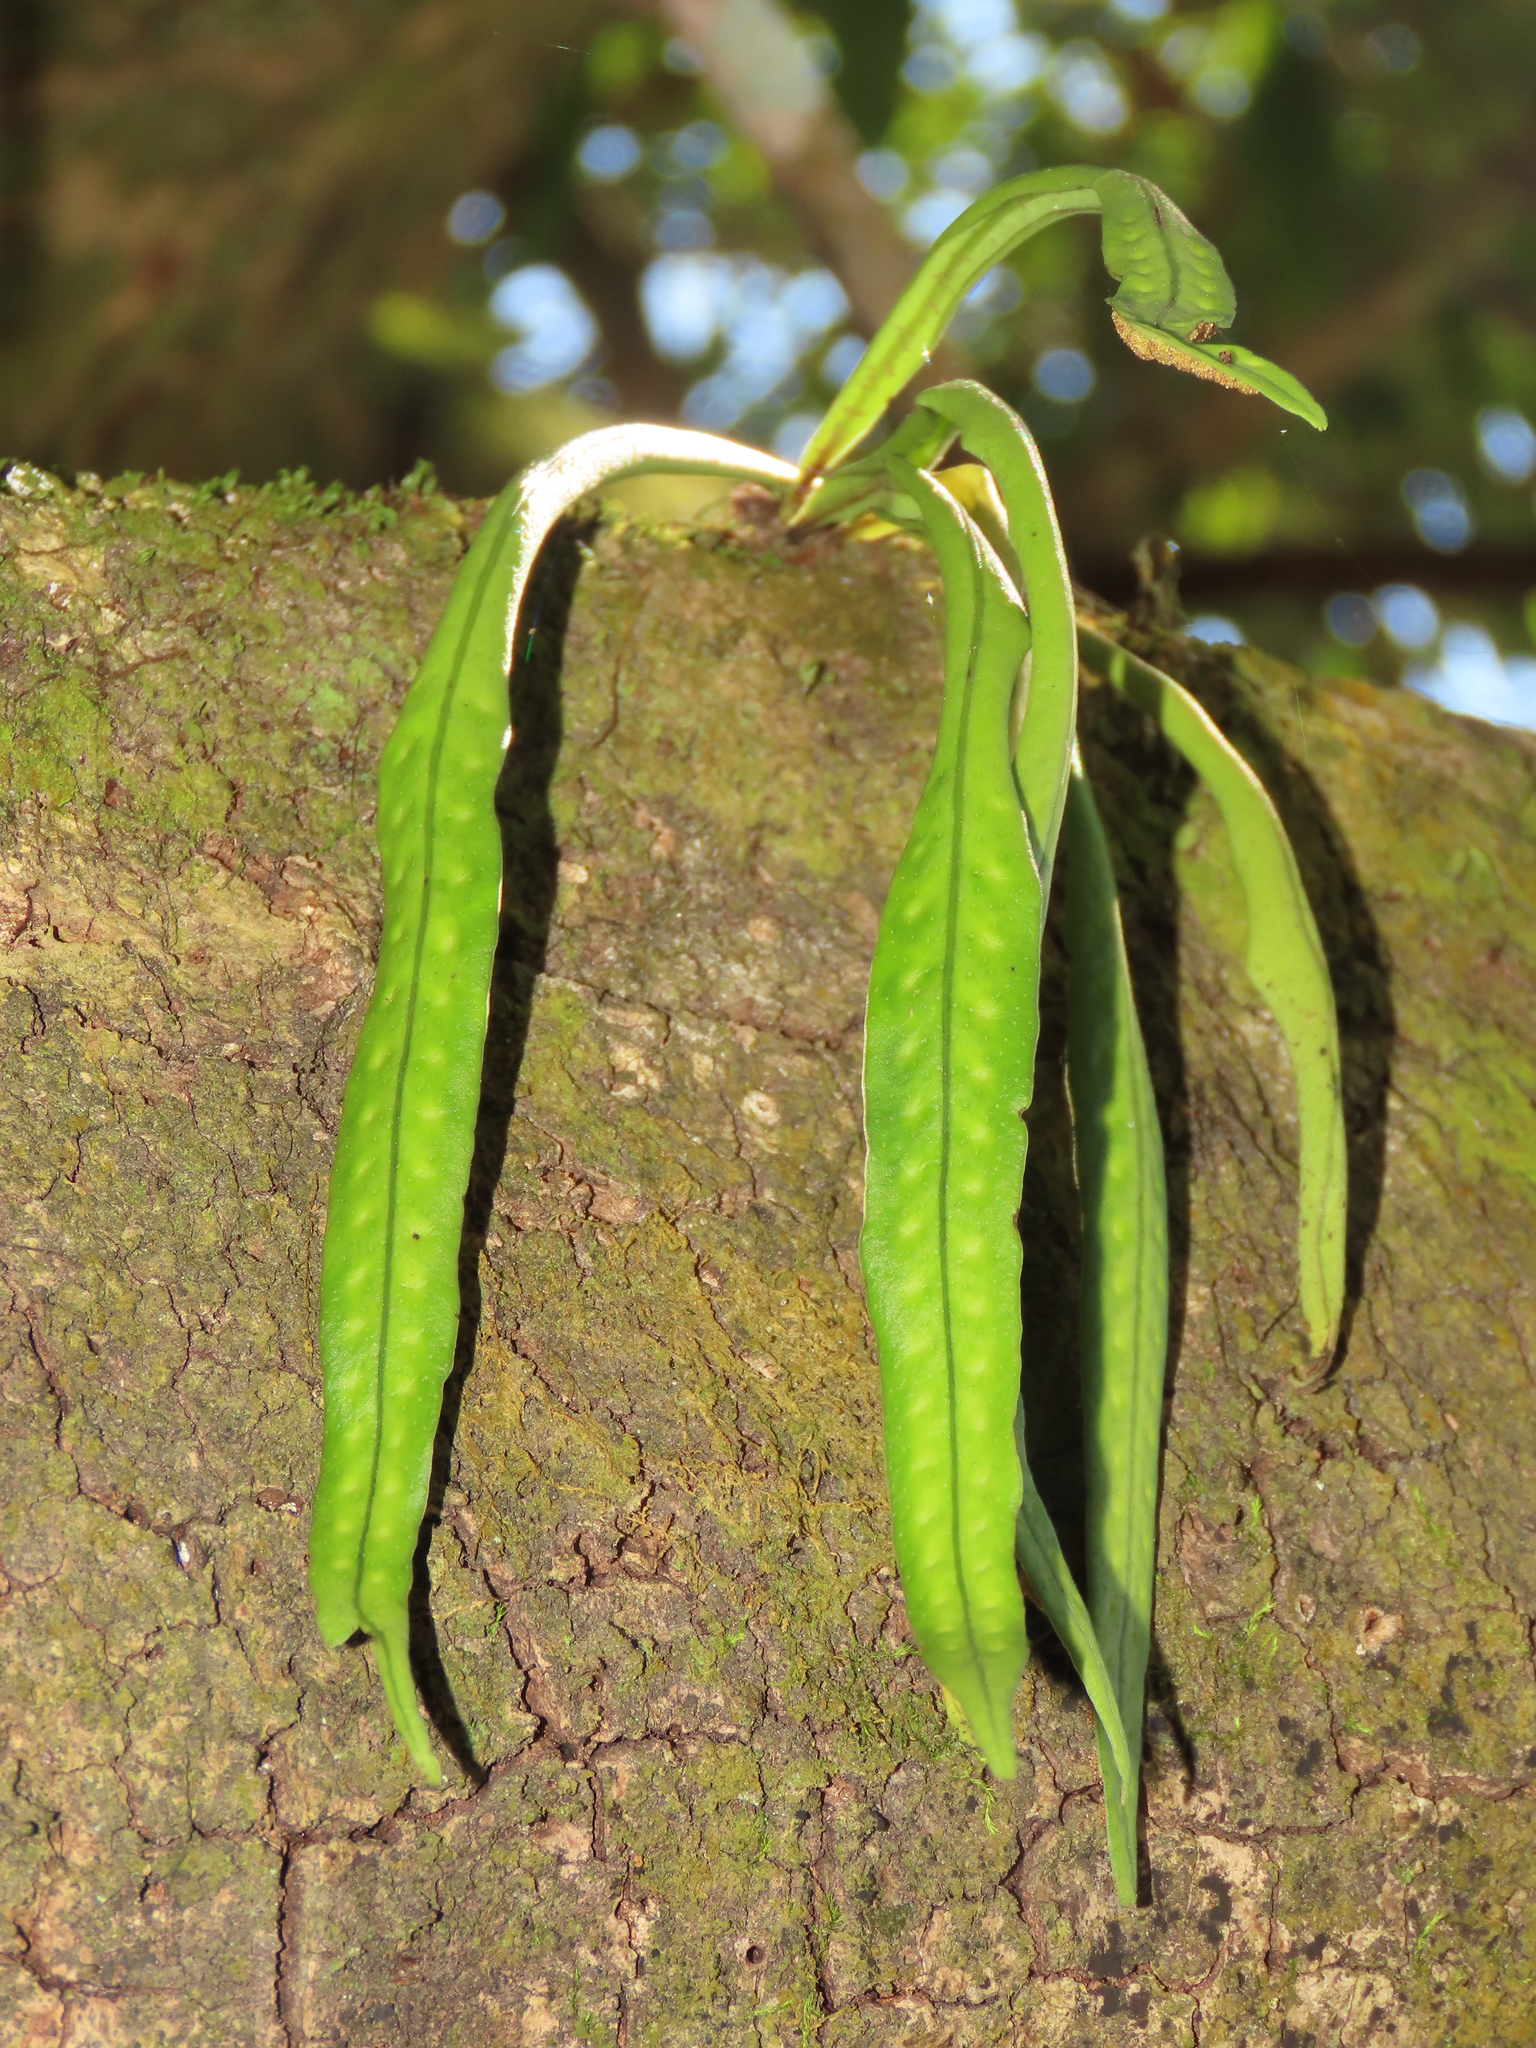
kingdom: Plantae
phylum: Tracheophyta
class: Polypodiopsida
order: Polypodiales
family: Polypodiaceae
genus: Lepisorus
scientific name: Lepisorus thunbergianus
